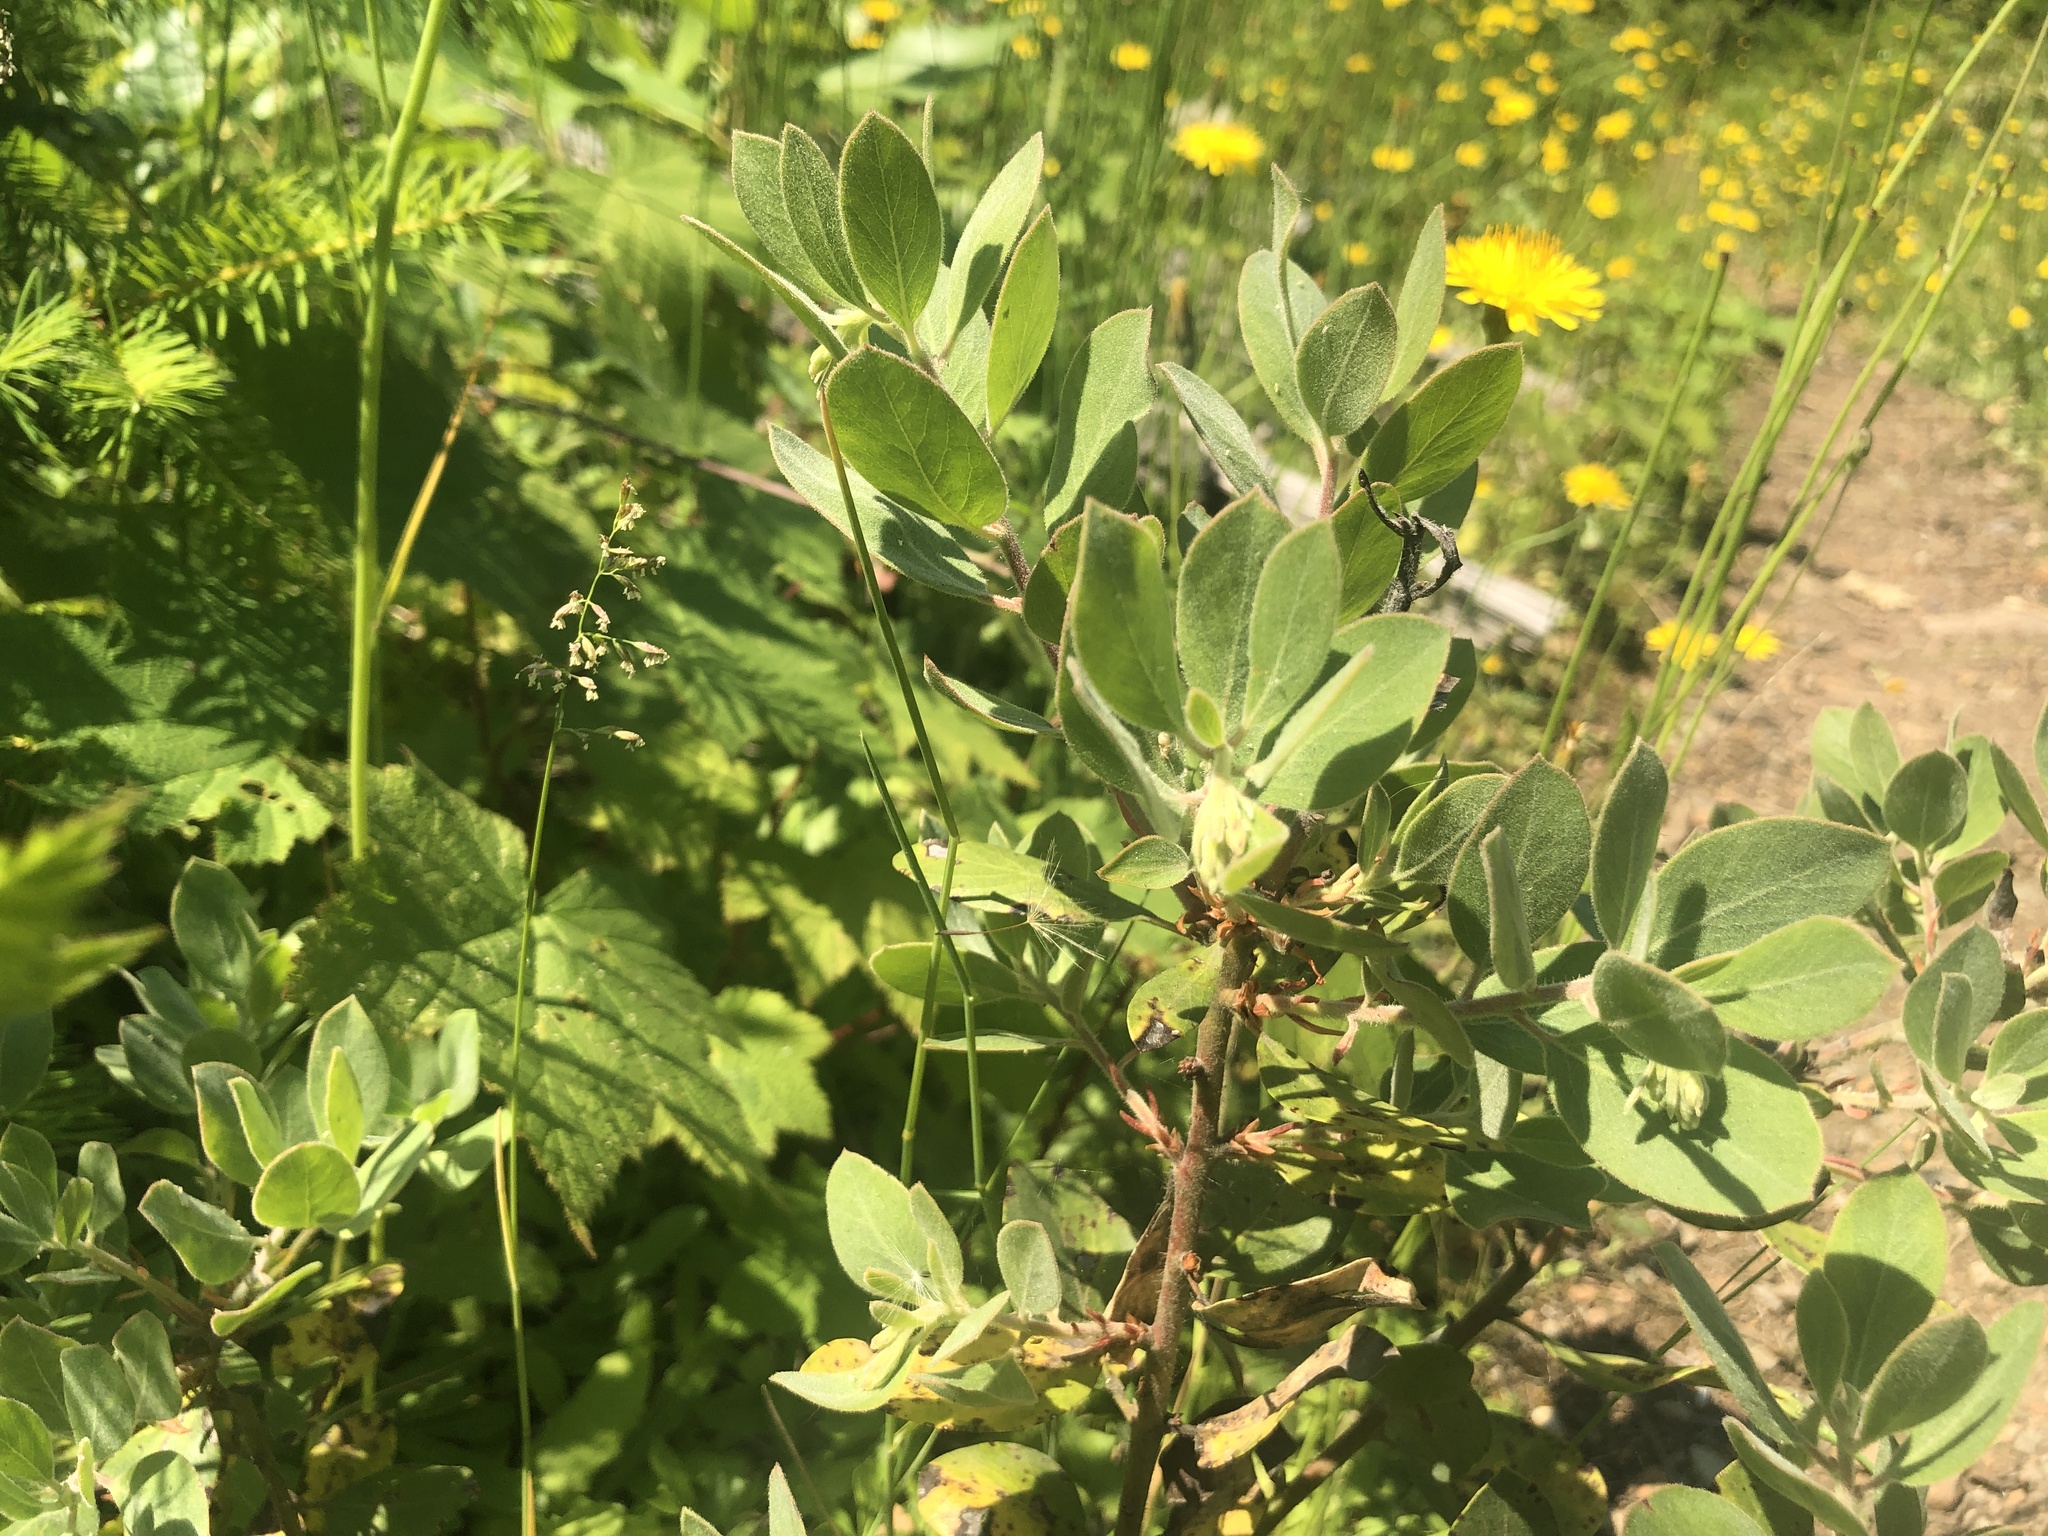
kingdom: Plantae
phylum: Tracheophyta
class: Magnoliopsida
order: Ericales
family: Ericaceae
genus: Arctostaphylos
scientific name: Arctostaphylos columbiana
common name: Bristly bearberry
